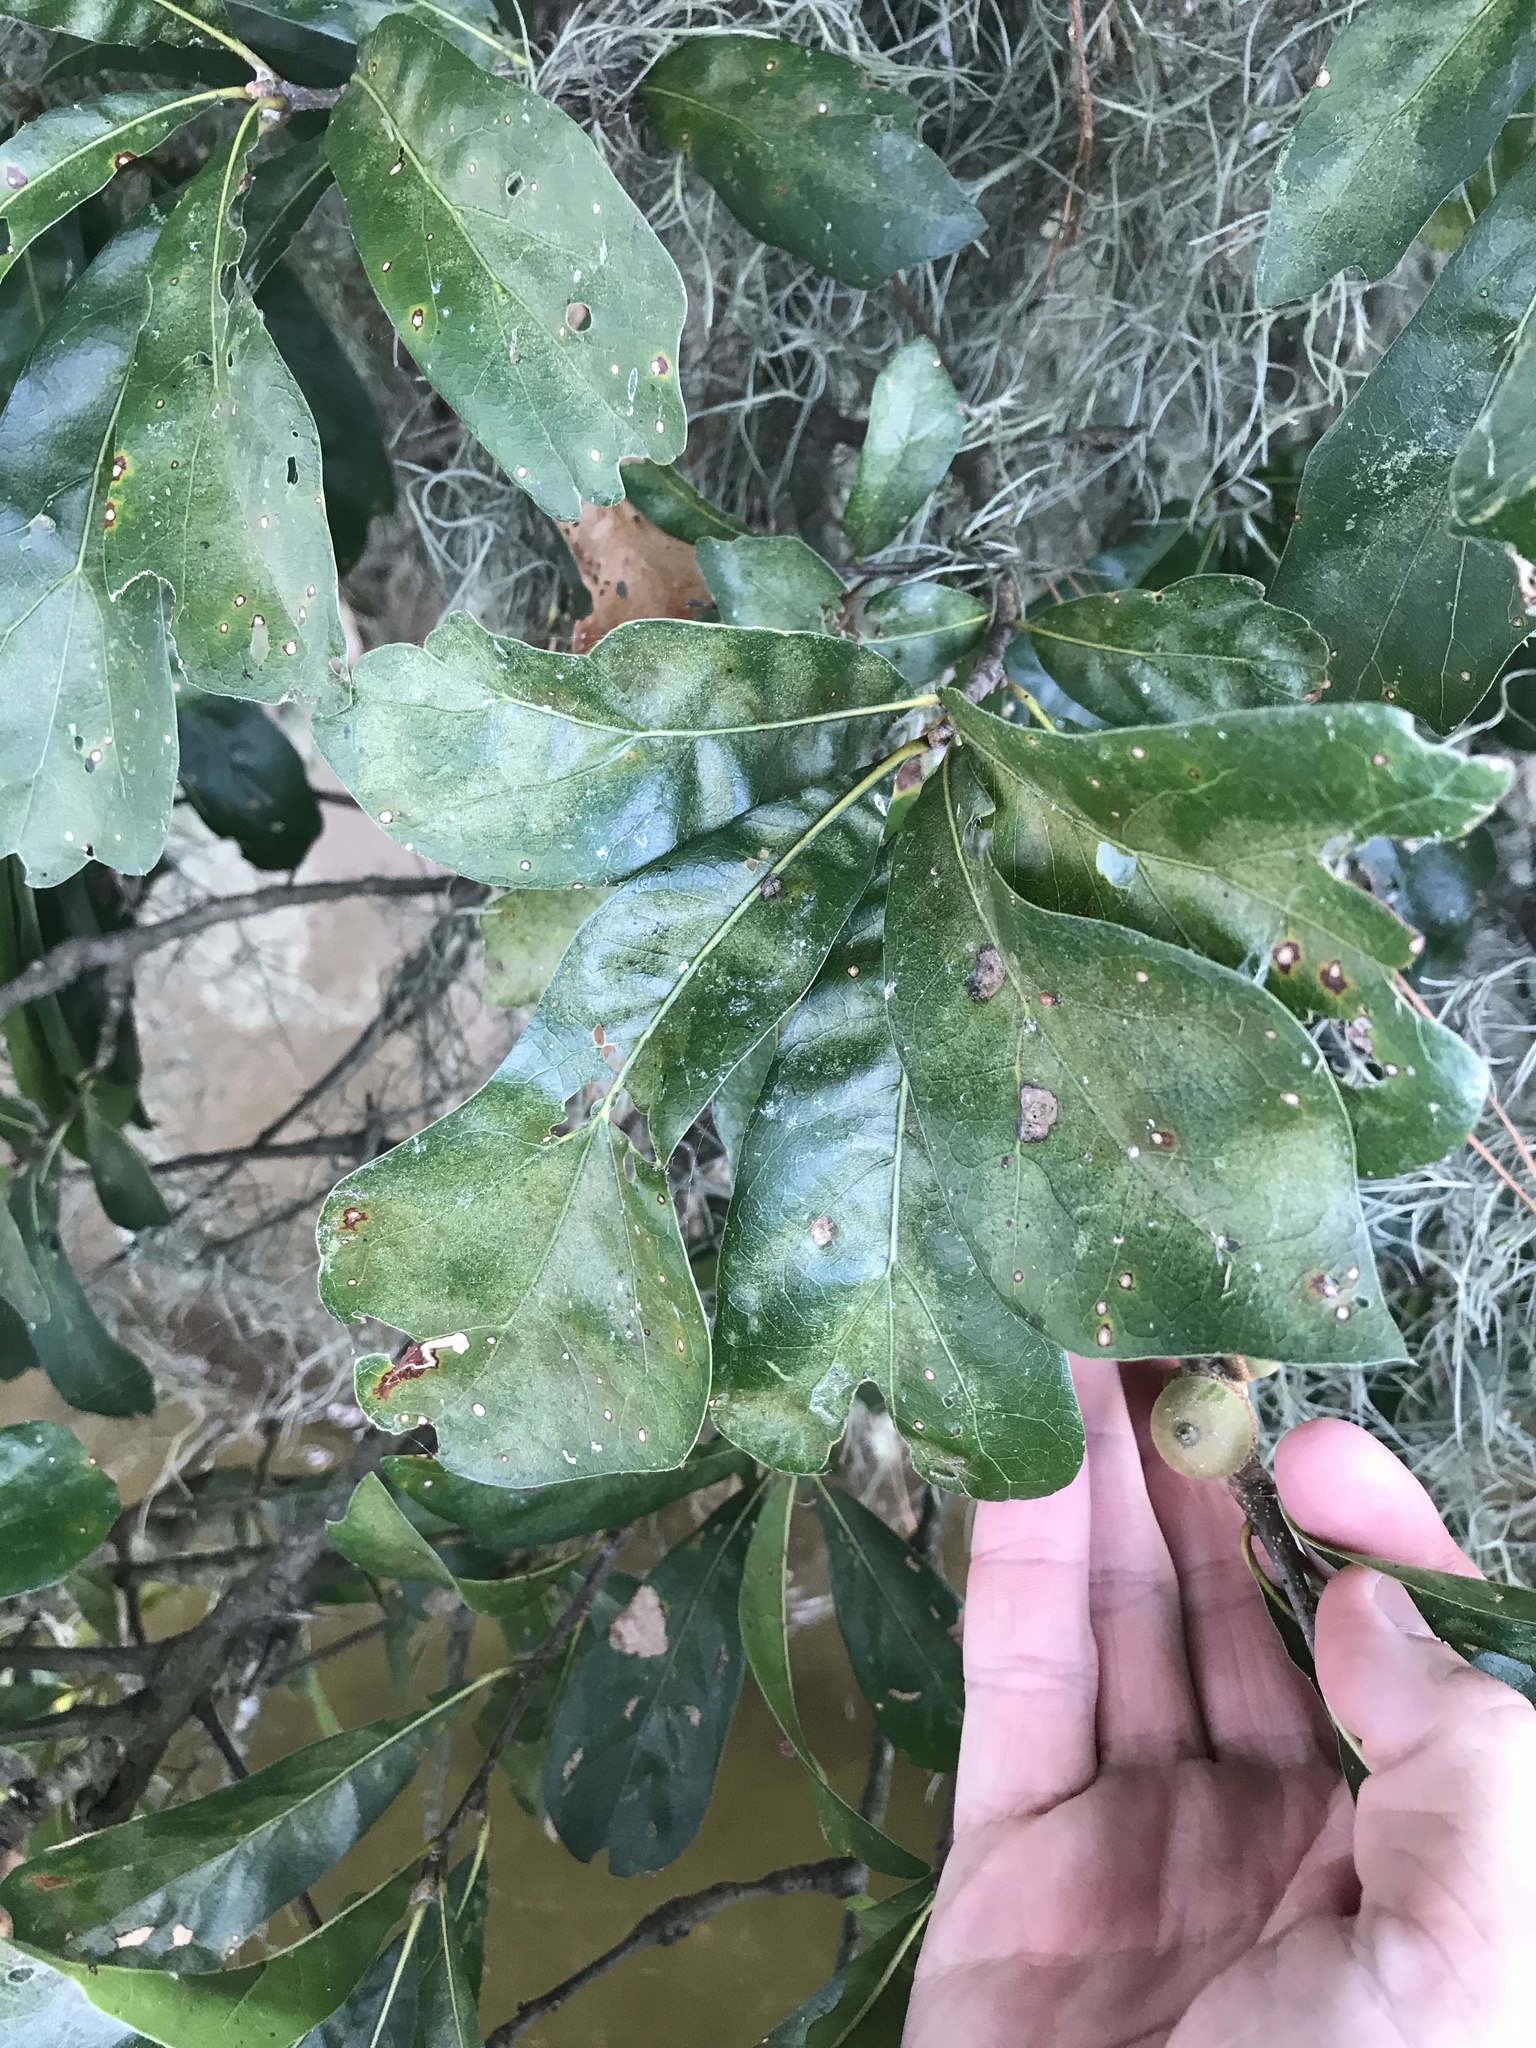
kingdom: Plantae
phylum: Tracheophyta
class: Magnoliopsida
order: Fagales
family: Fagaceae
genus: Quercus
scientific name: Quercus nigra
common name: Water oak
